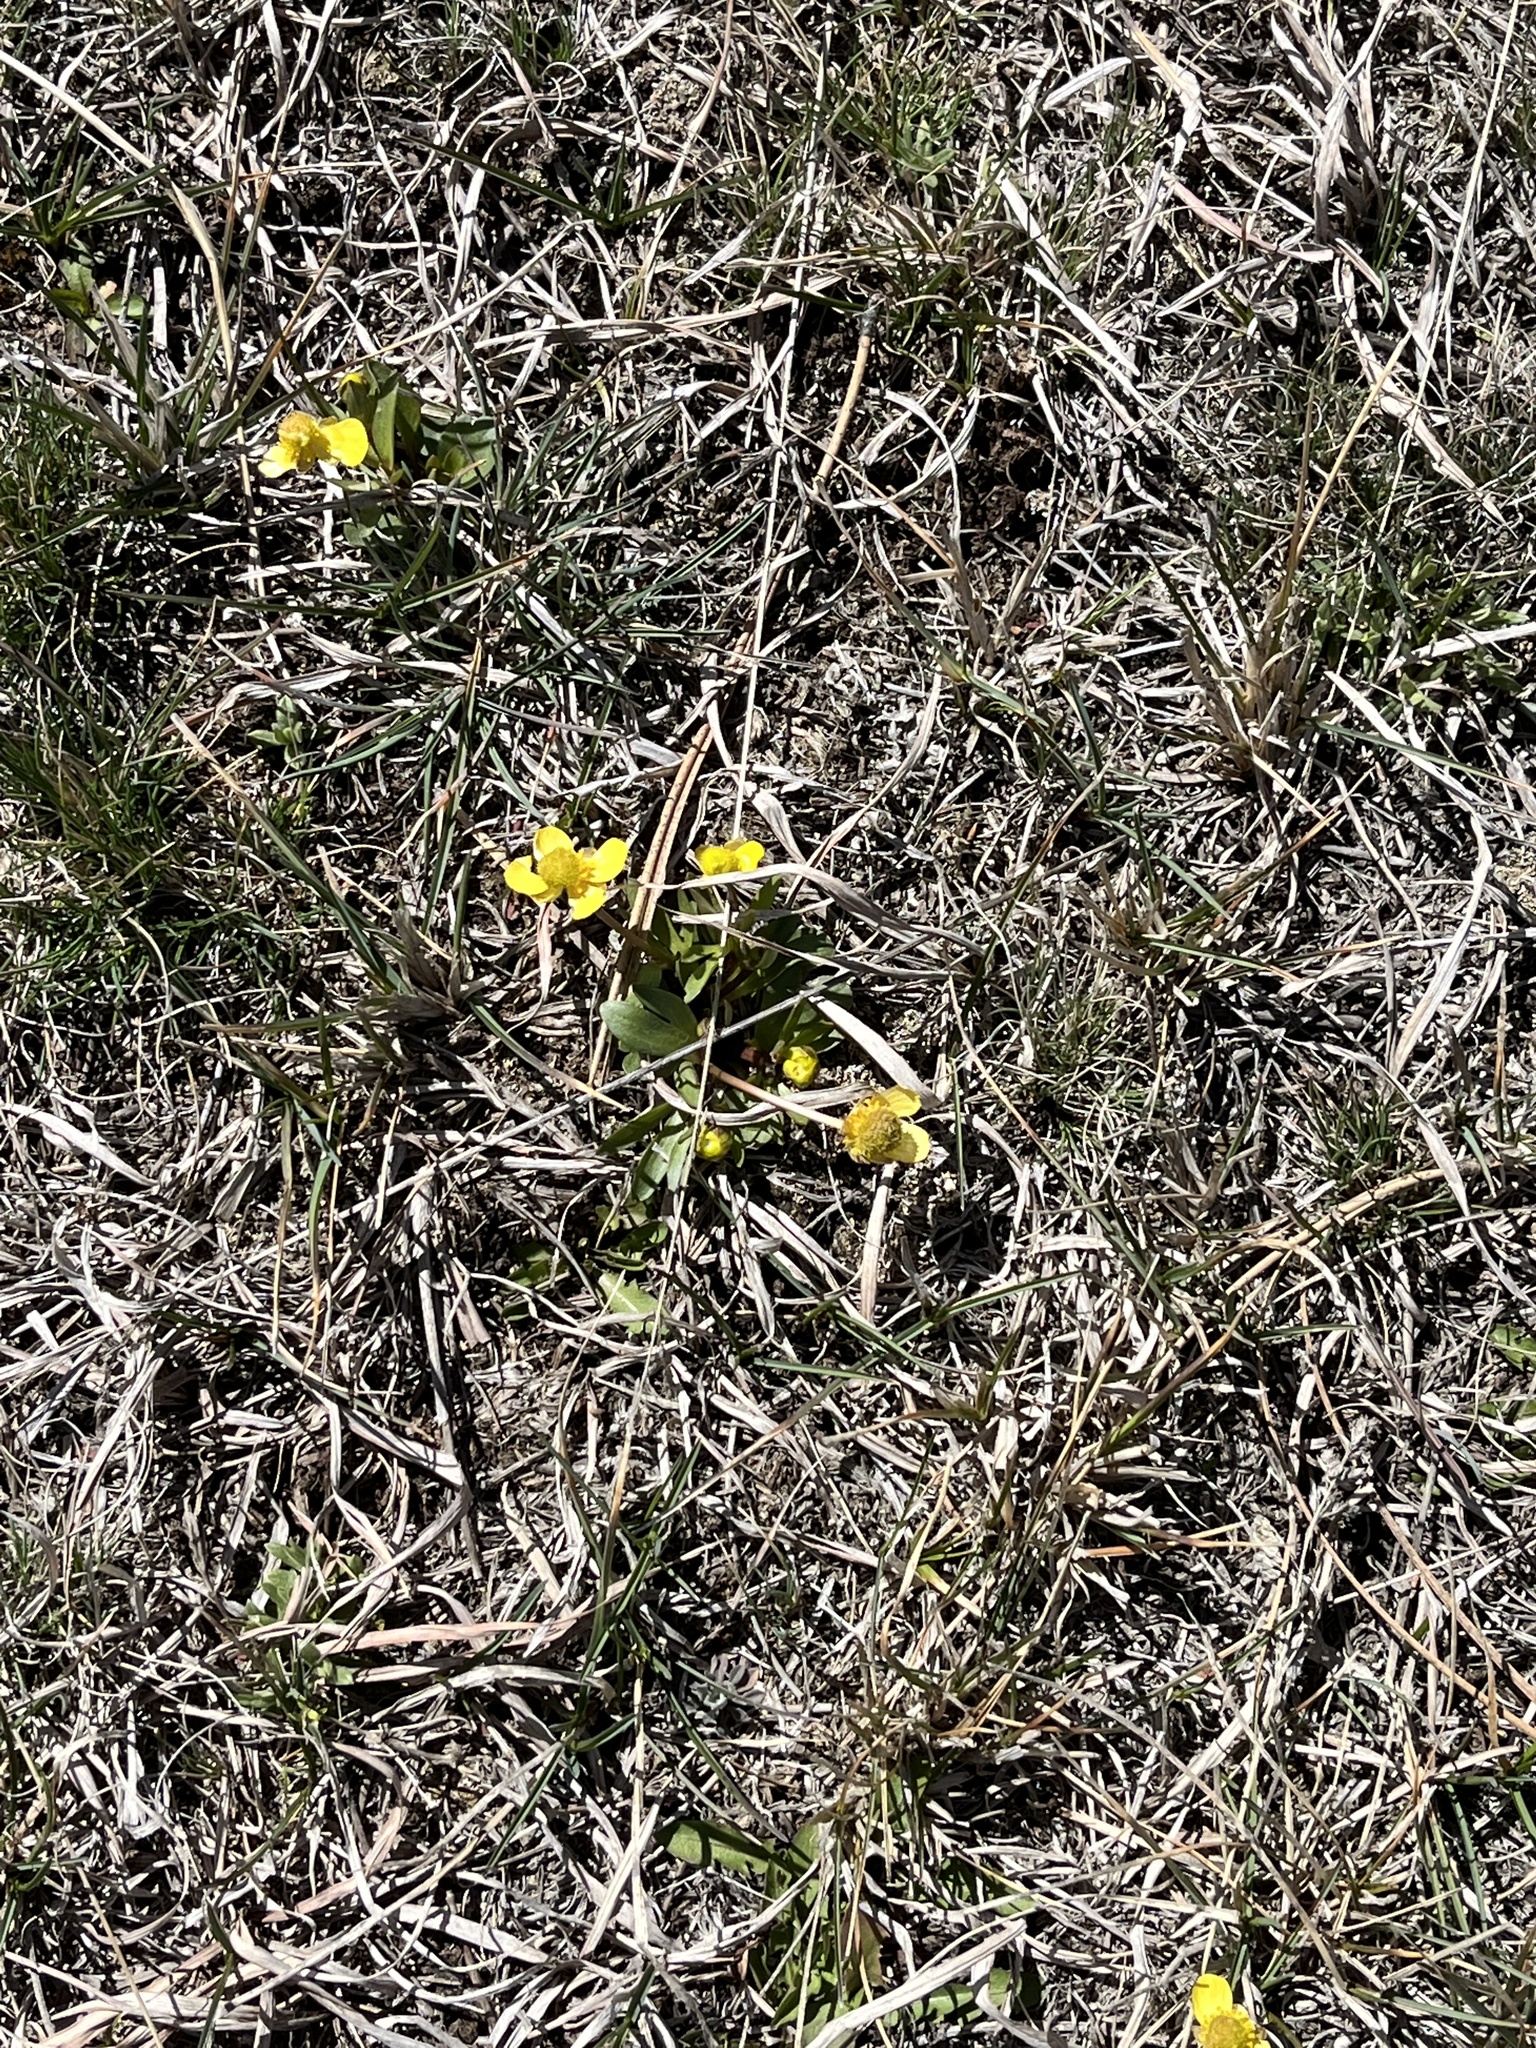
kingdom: Plantae
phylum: Tracheophyta
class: Magnoliopsida
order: Ranunculales
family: Ranunculaceae
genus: Ranunculus
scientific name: Ranunculus glaberrimus
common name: Sagebrush buttercup
